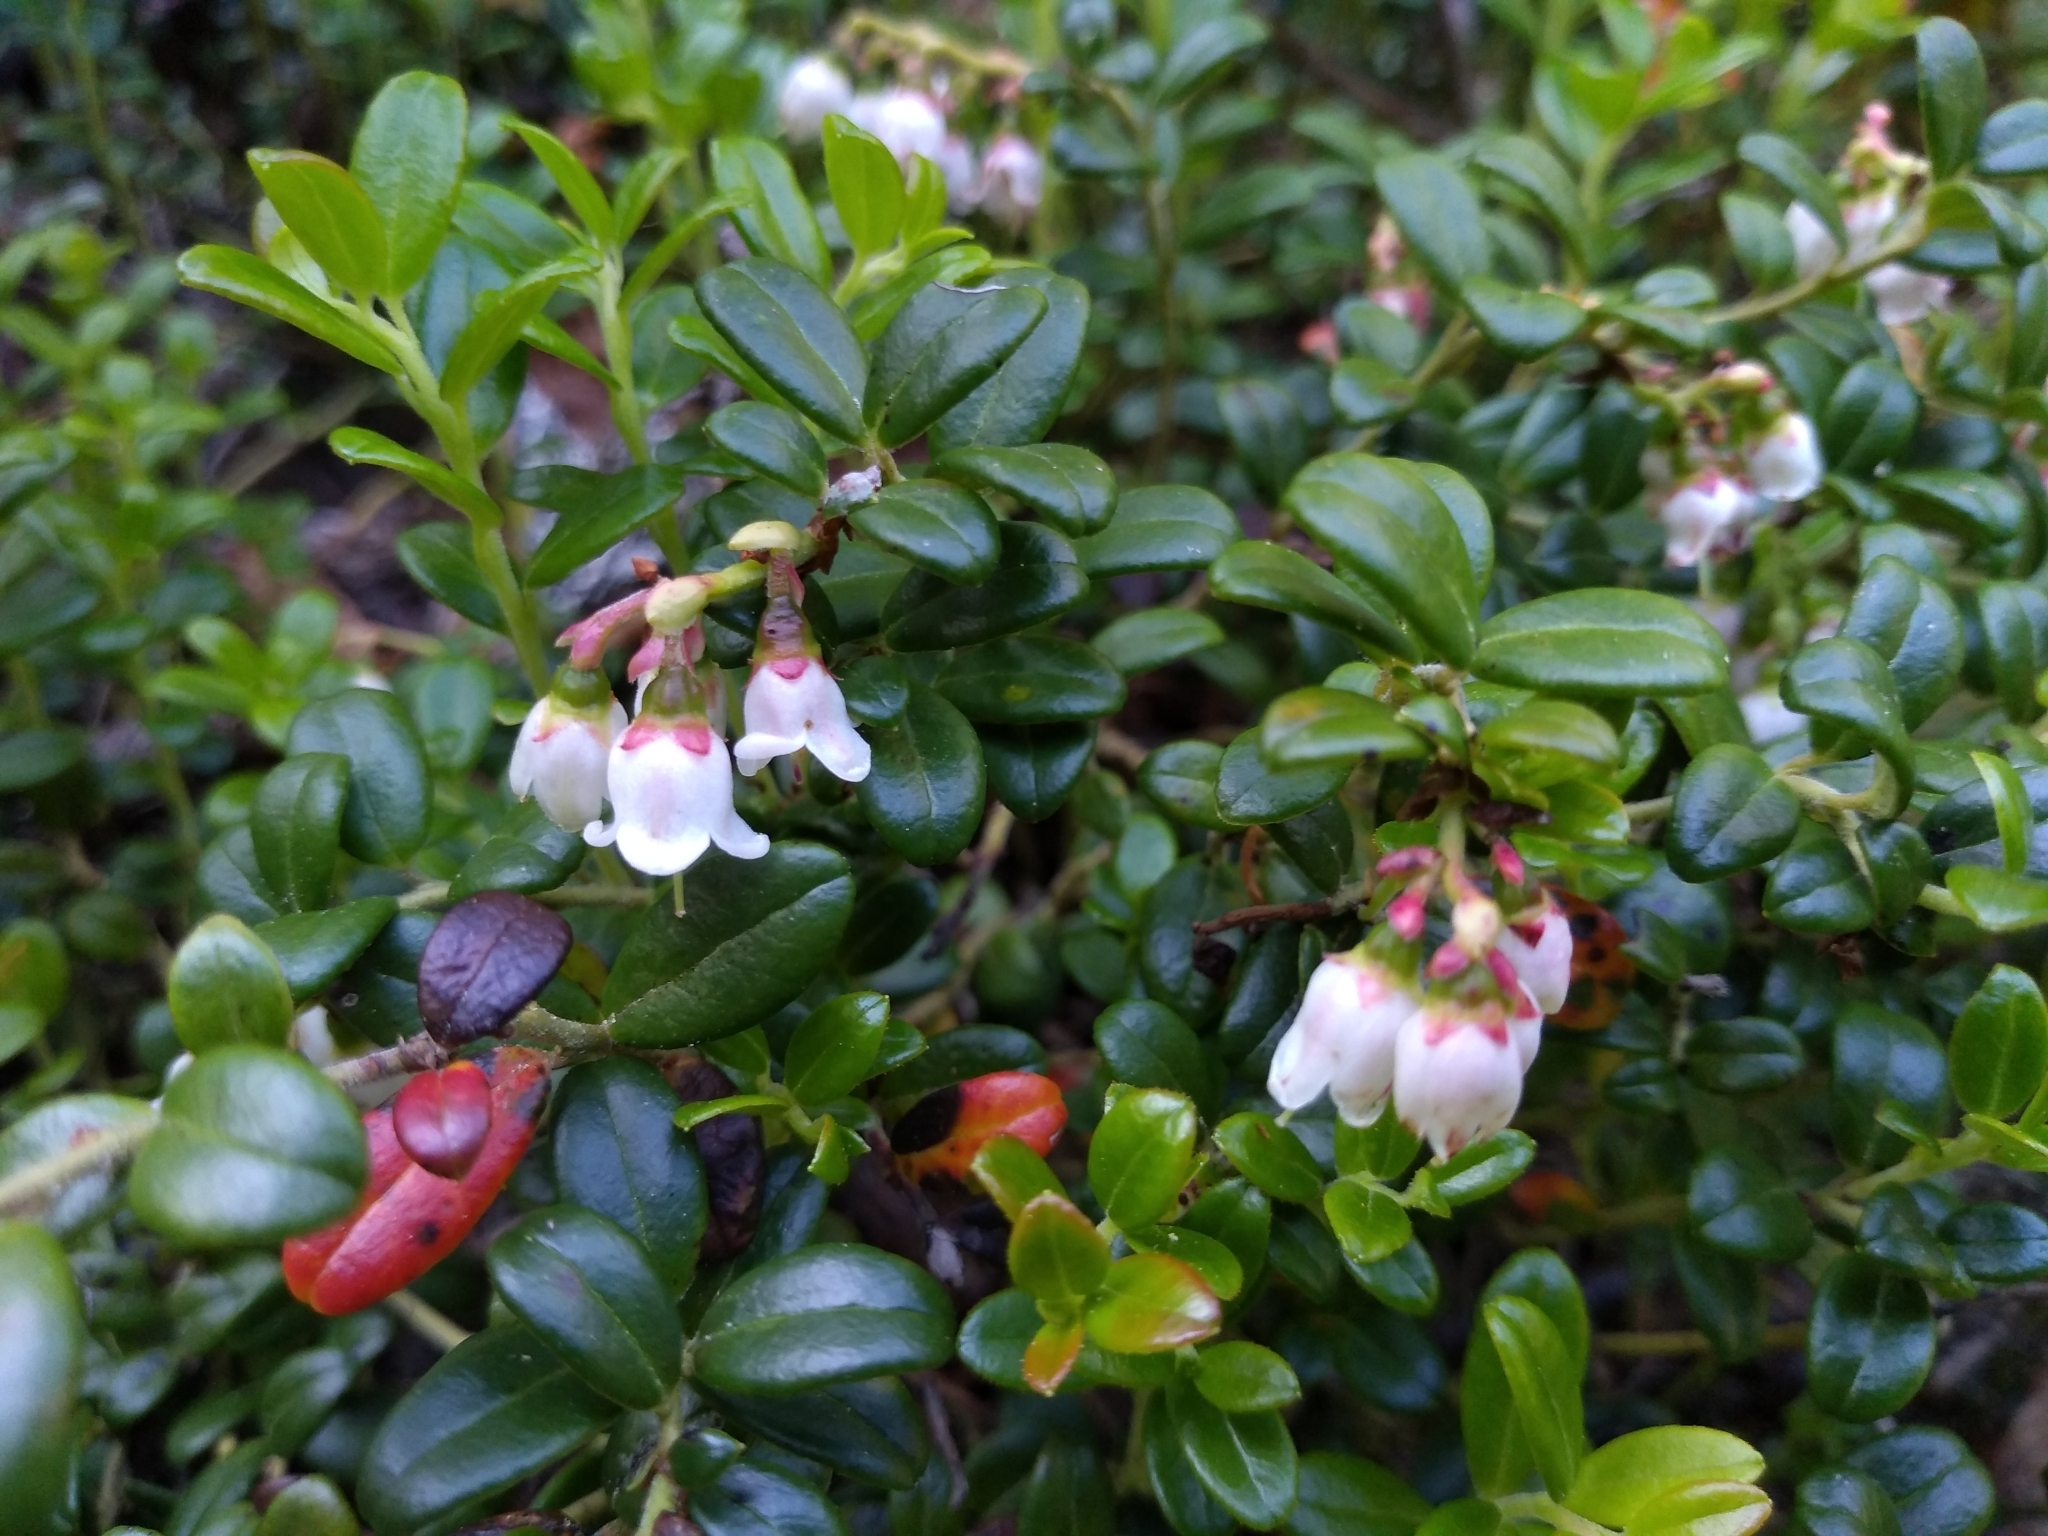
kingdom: Plantae
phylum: Tracheophyta
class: Magnoliopsida
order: Ericales
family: Ericaceae
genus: Vaccinium
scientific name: Vaccinium vitis-idaea
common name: Cowberry
